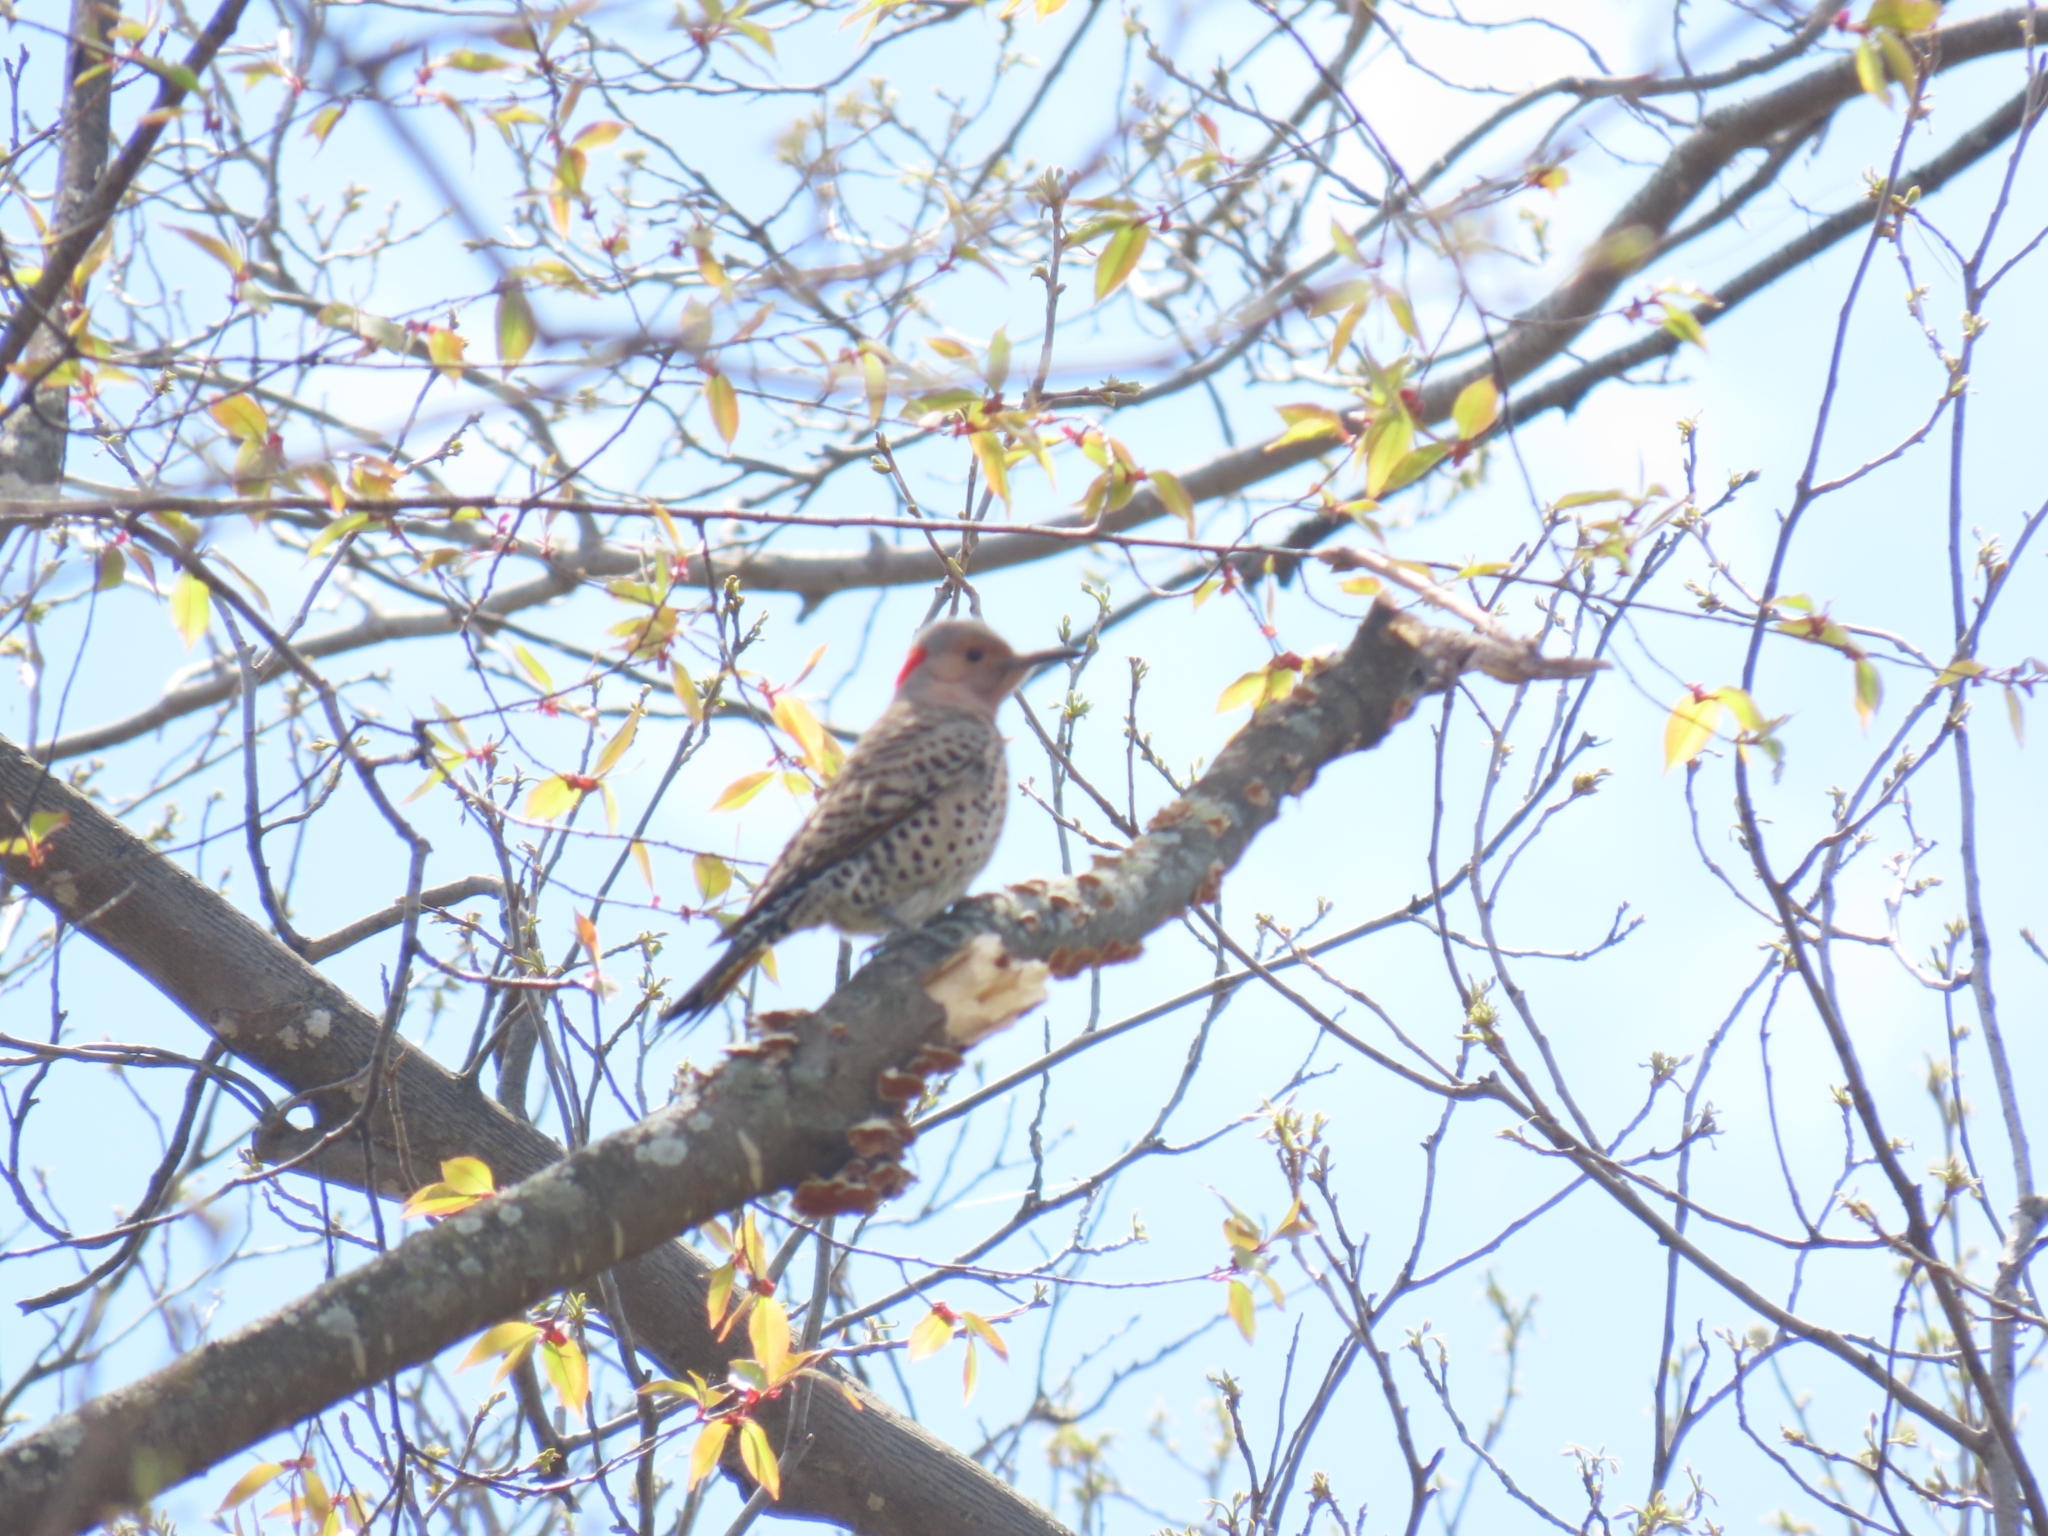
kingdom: Animalia
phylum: Chordata
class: Aves
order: Piciformes
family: Picidae
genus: Colaptes
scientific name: Colaptes auratus
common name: Northern flicker
